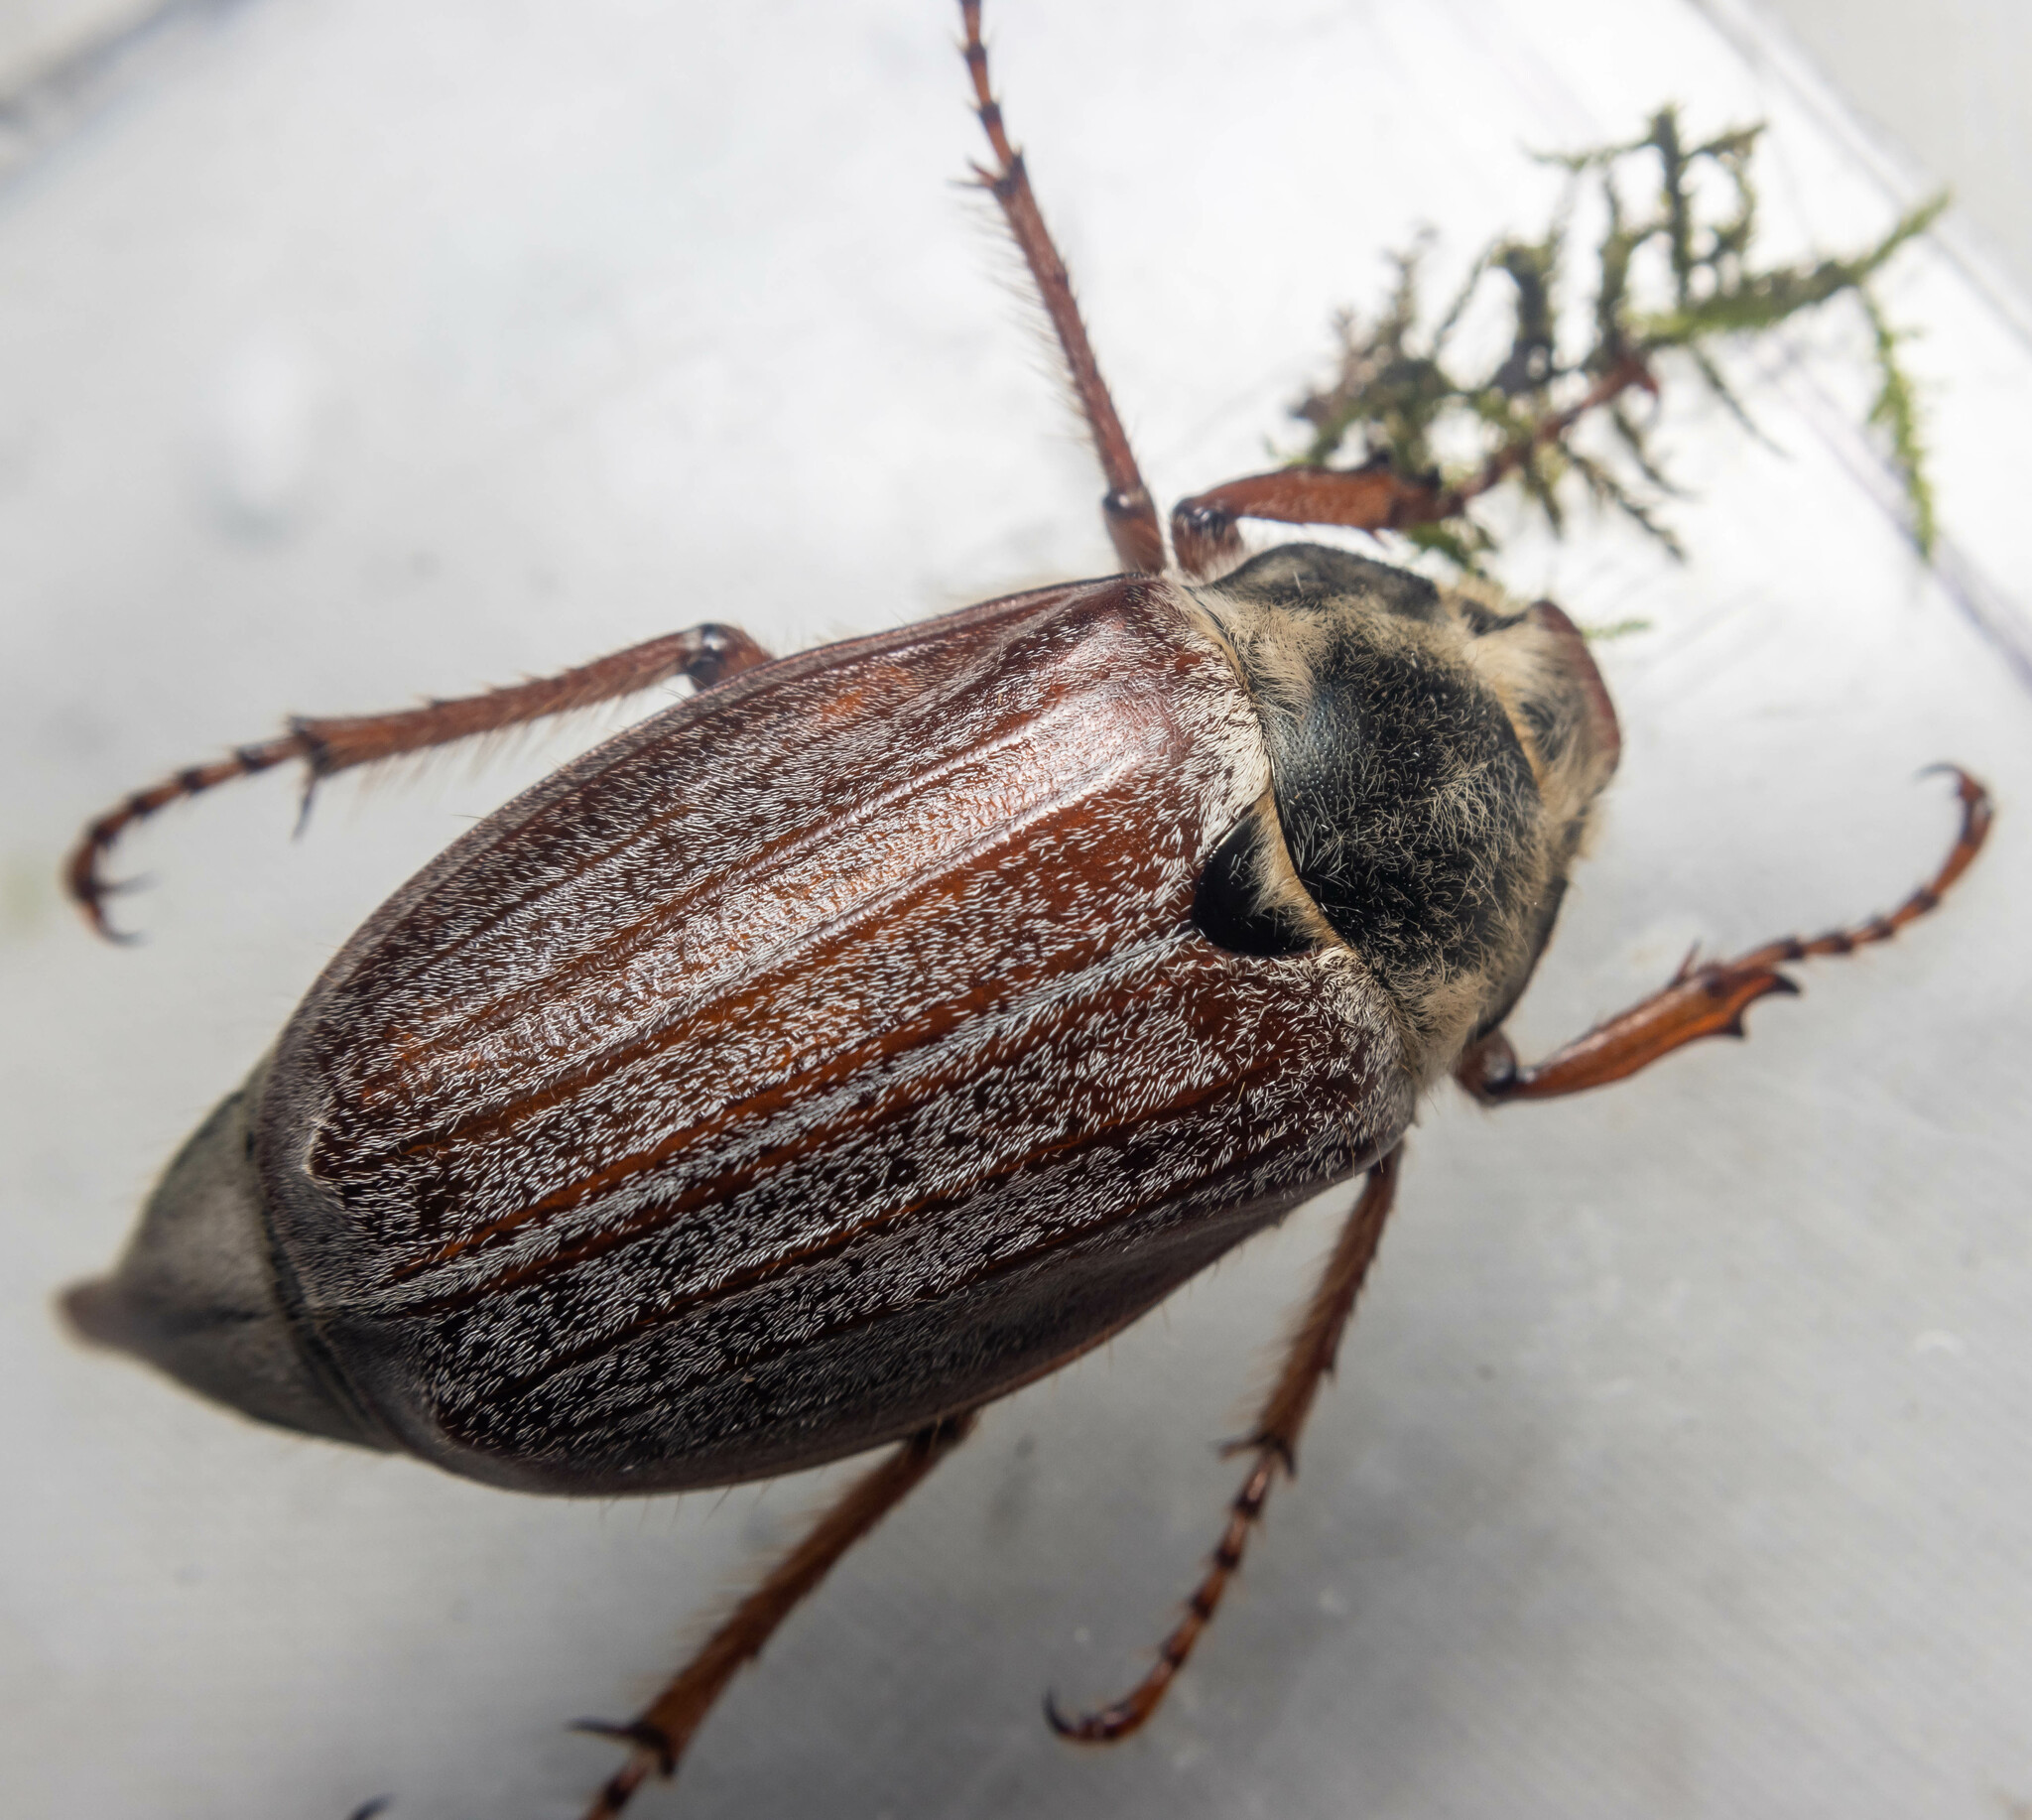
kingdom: Animalia
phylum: Arthropoda
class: Insecta
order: Coleoptera
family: Scarabaeidae
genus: Melolontha
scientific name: Melolontha melolontha
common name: Cockchafer maybeetle
